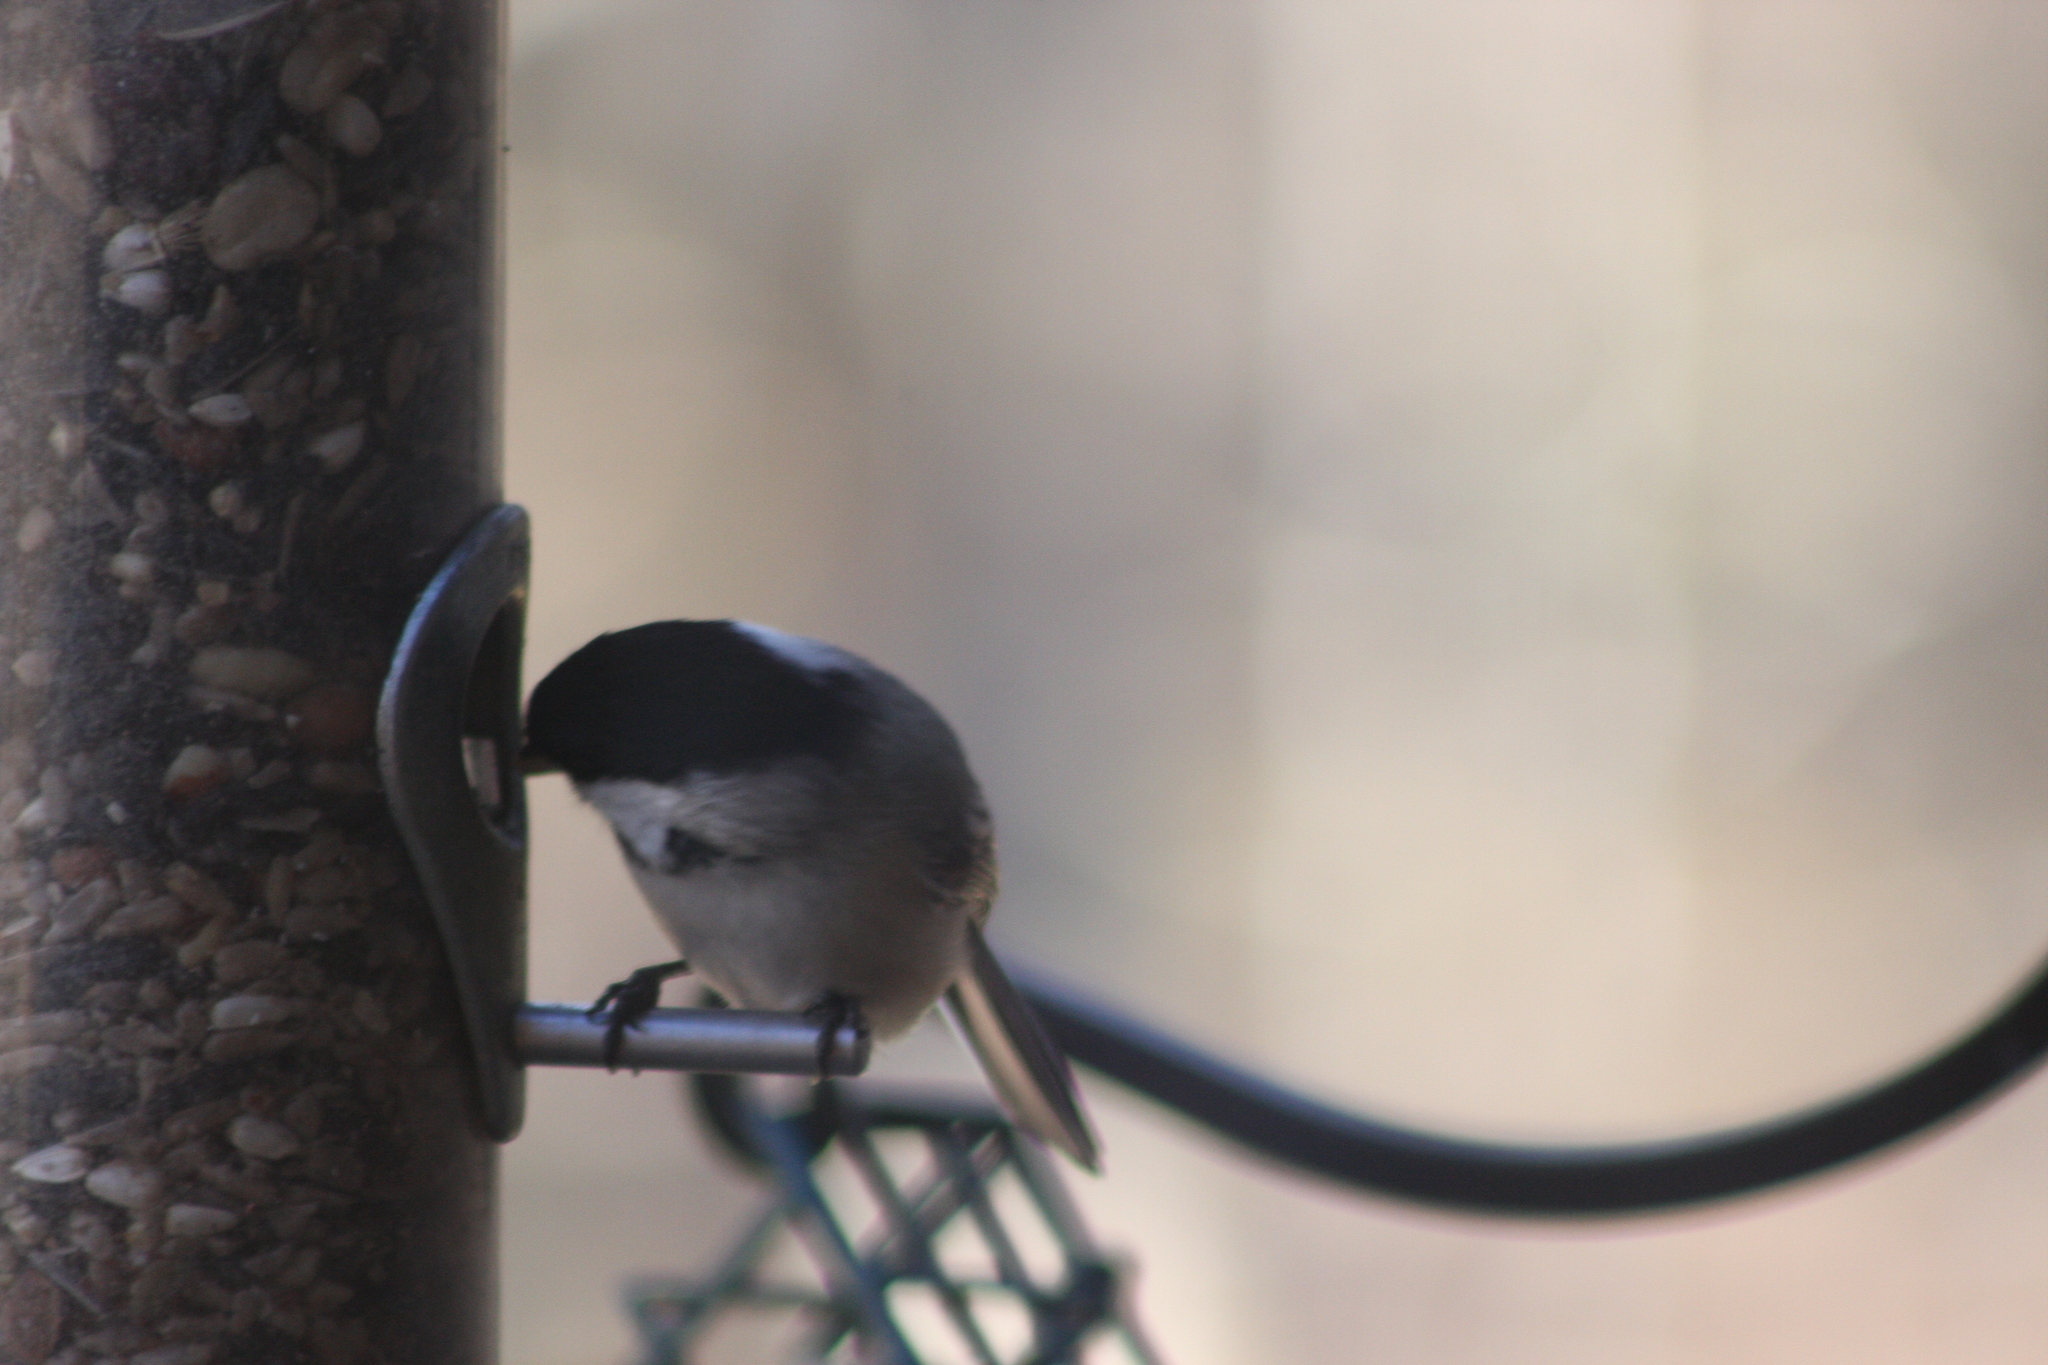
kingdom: Animalia
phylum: Chordata
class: Aves
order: Passeriformes
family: Paridae
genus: Poecile
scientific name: Poecile atricapillus
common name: Black-capped chickadee
